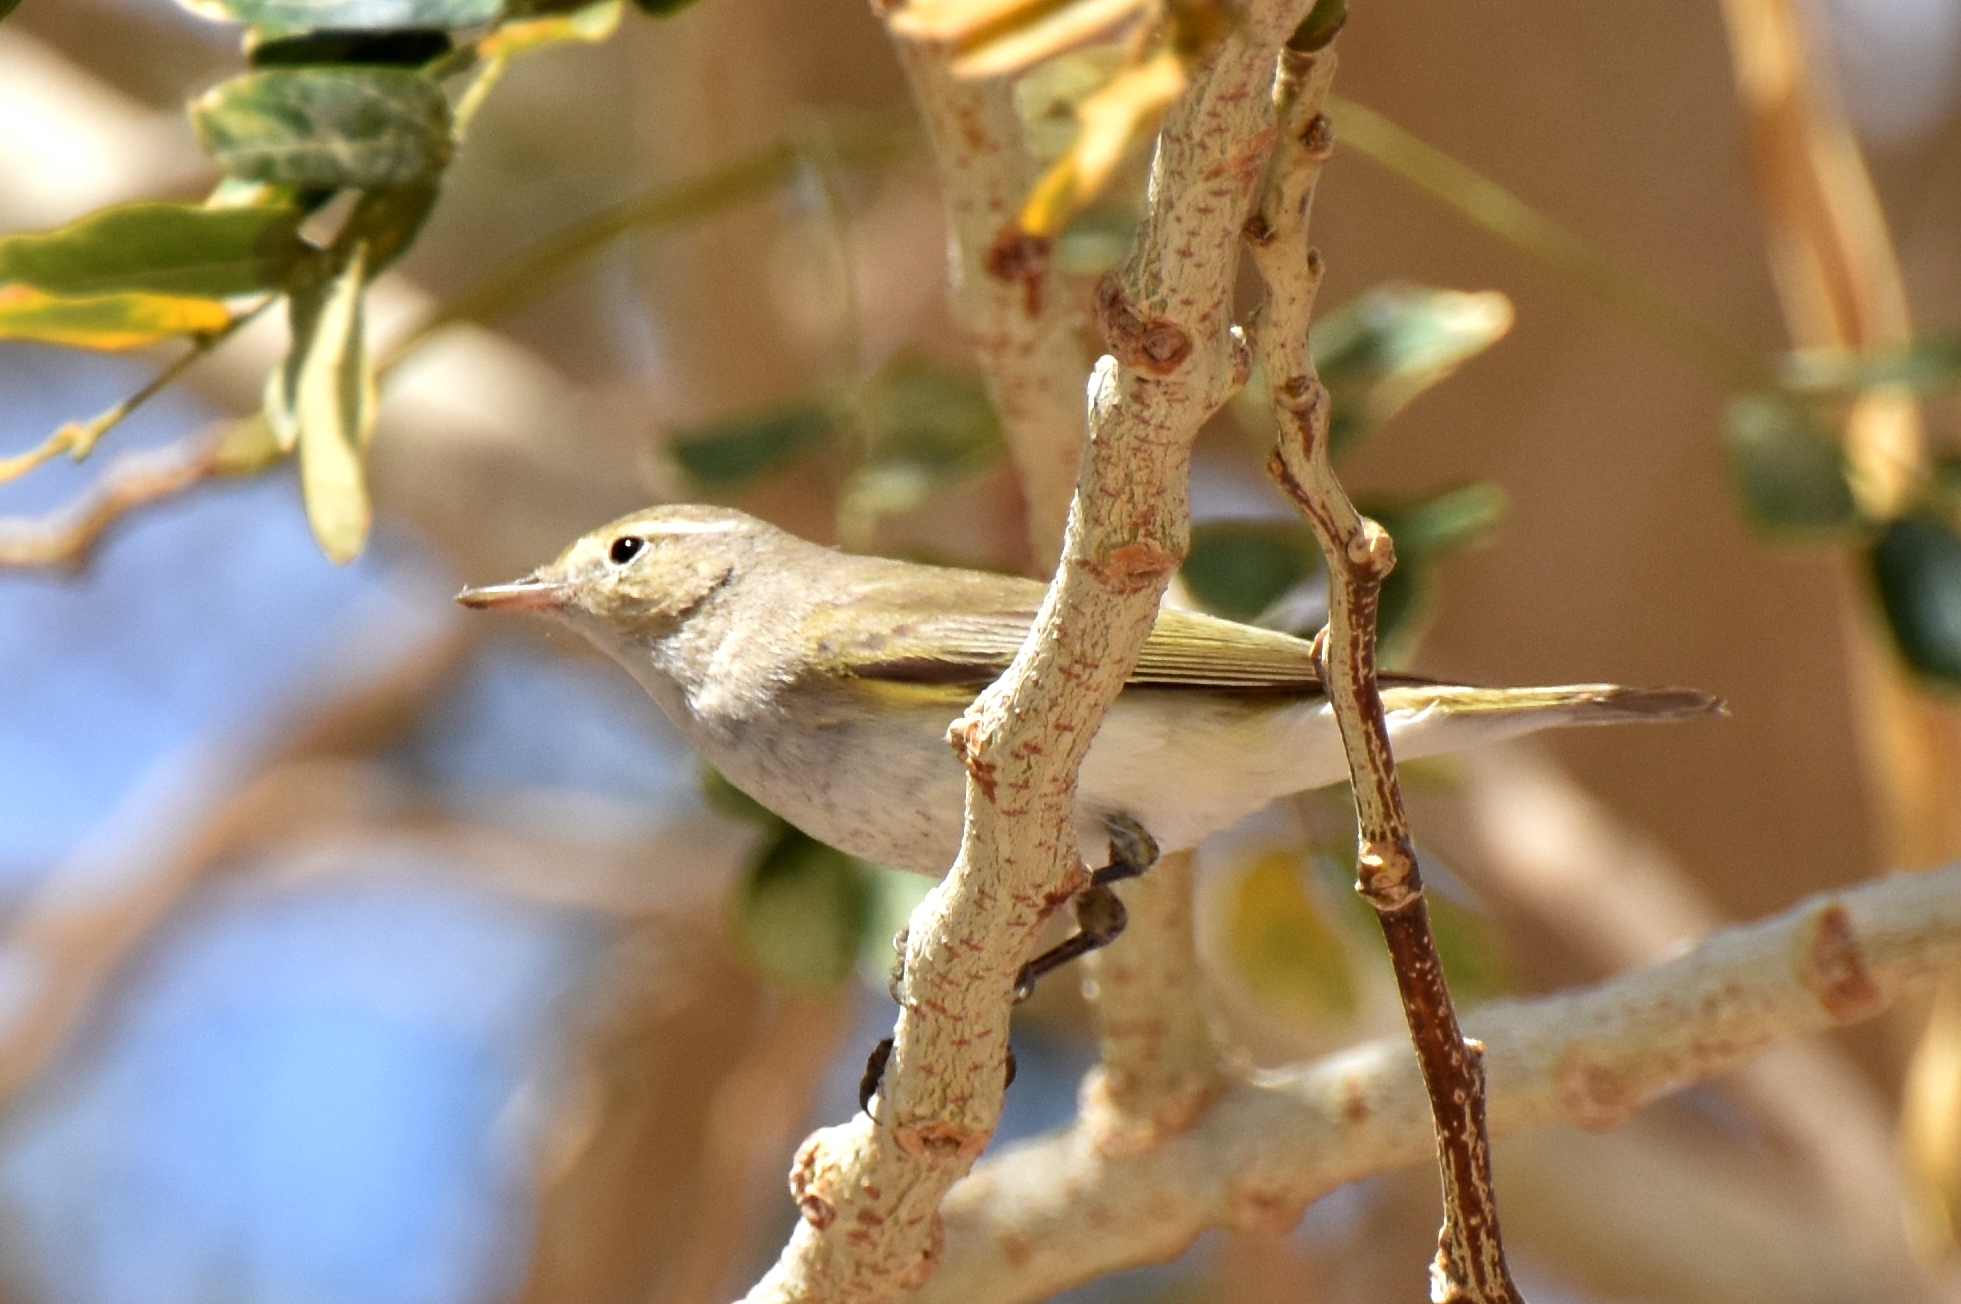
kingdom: Animalia
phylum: Chordata
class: Aves
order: Passeriformes
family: Phylloscopidae
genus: Phylloscopus
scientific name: Phylloscopus orientalis
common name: Eastern bonelli's warbler
